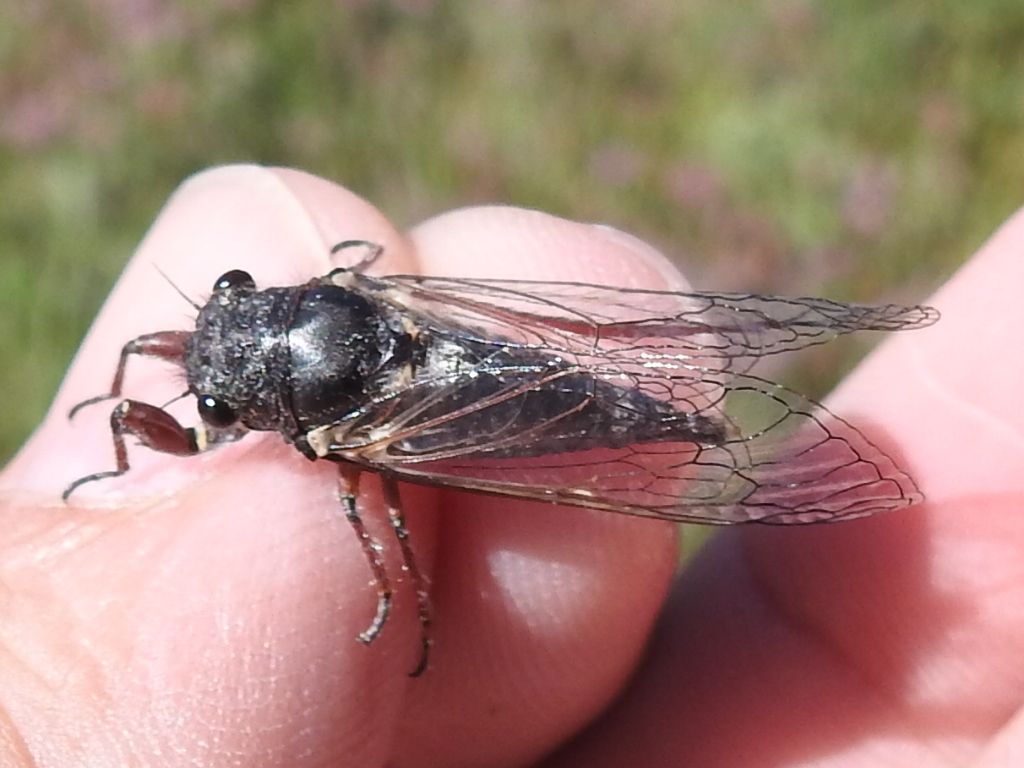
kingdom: Animalia
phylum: Arthropoda
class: Insecta
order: Hemiptera
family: Cicadidae
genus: Platypedia
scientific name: Platypedia minor
